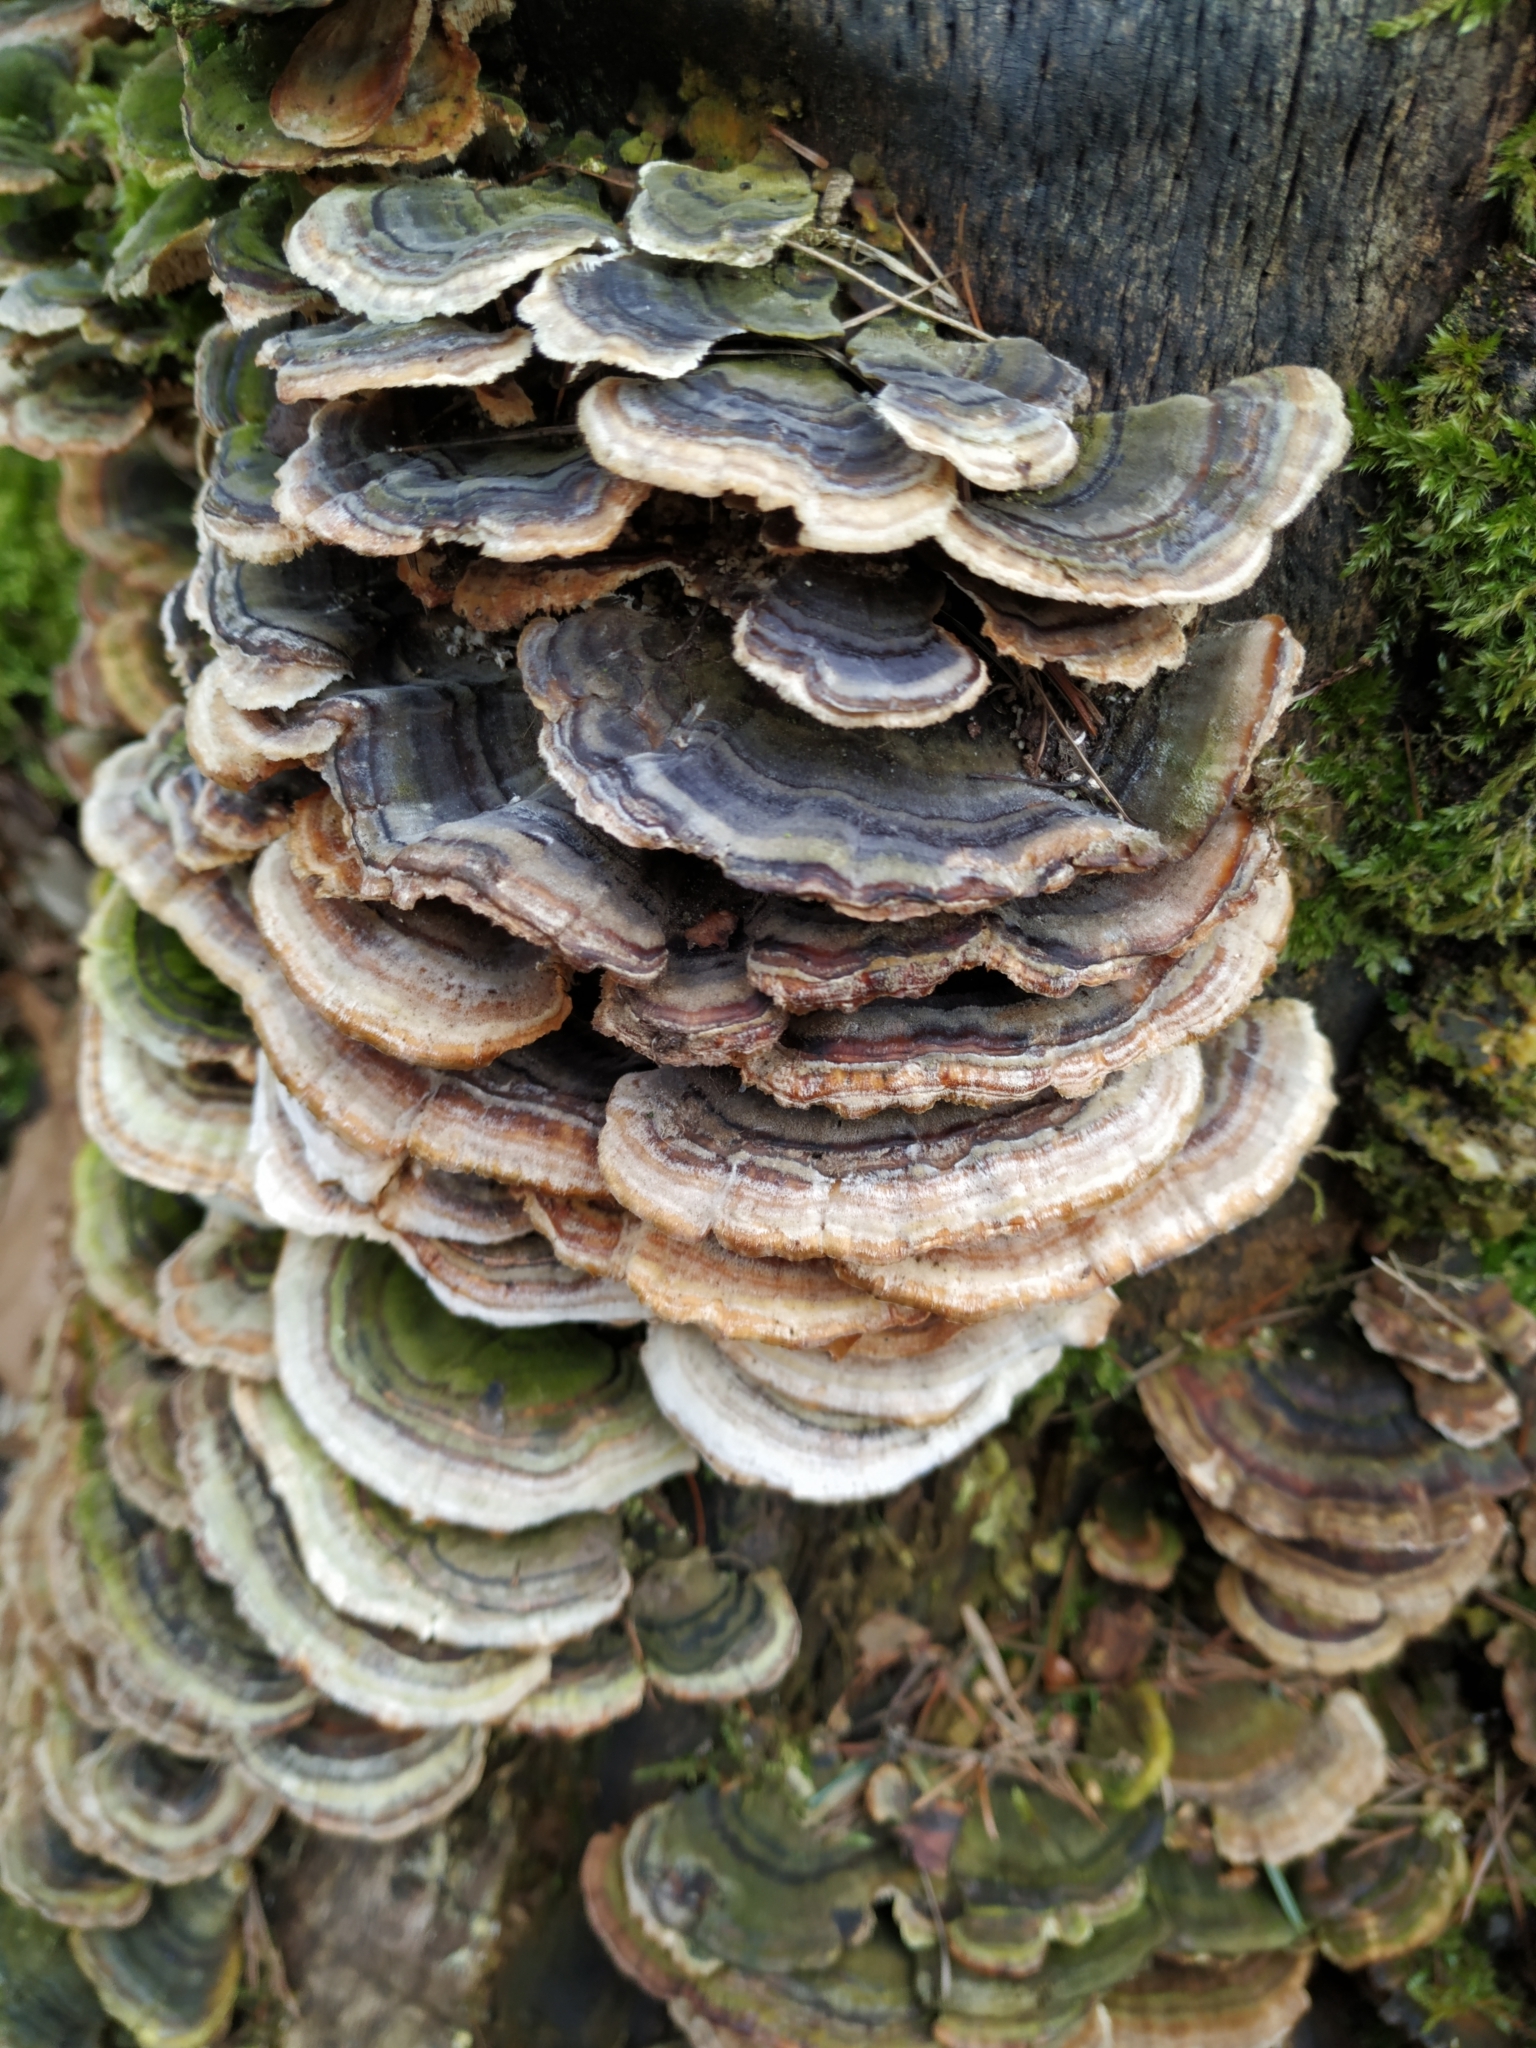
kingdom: Fungi
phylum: Basidiomycota
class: Agaricomycetes
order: Polyporales
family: Polyporaceae
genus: Trametes
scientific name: Trametes versicolor
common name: Turkeytail
